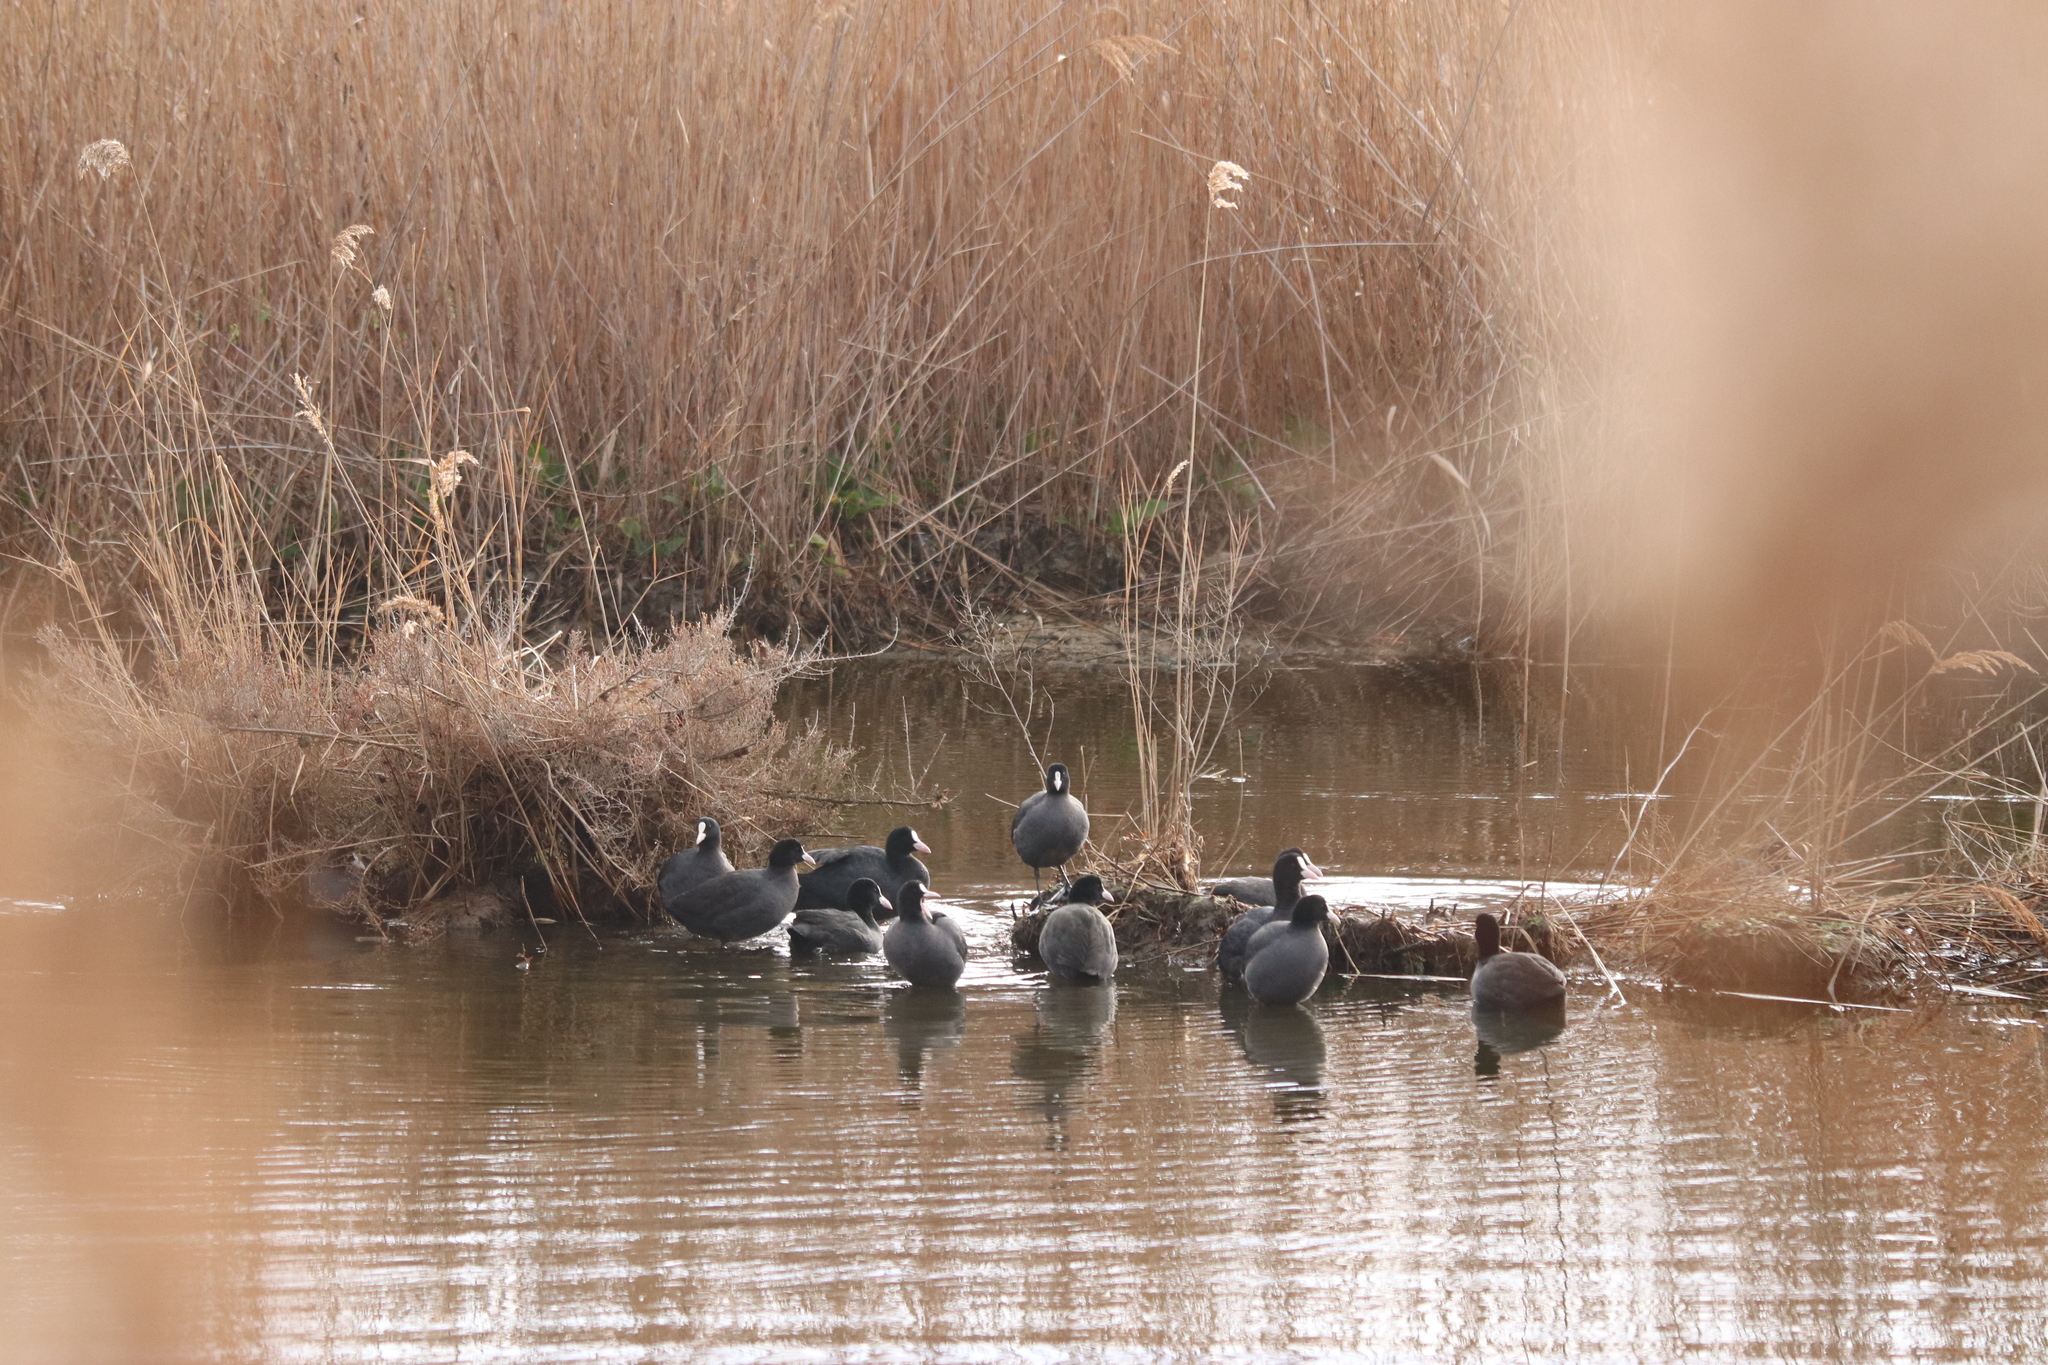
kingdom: Animalia
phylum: Chordata
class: Aves
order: Gruiformes
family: Rallidae
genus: Fulica
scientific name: Fulica atra
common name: Eurasian coot
